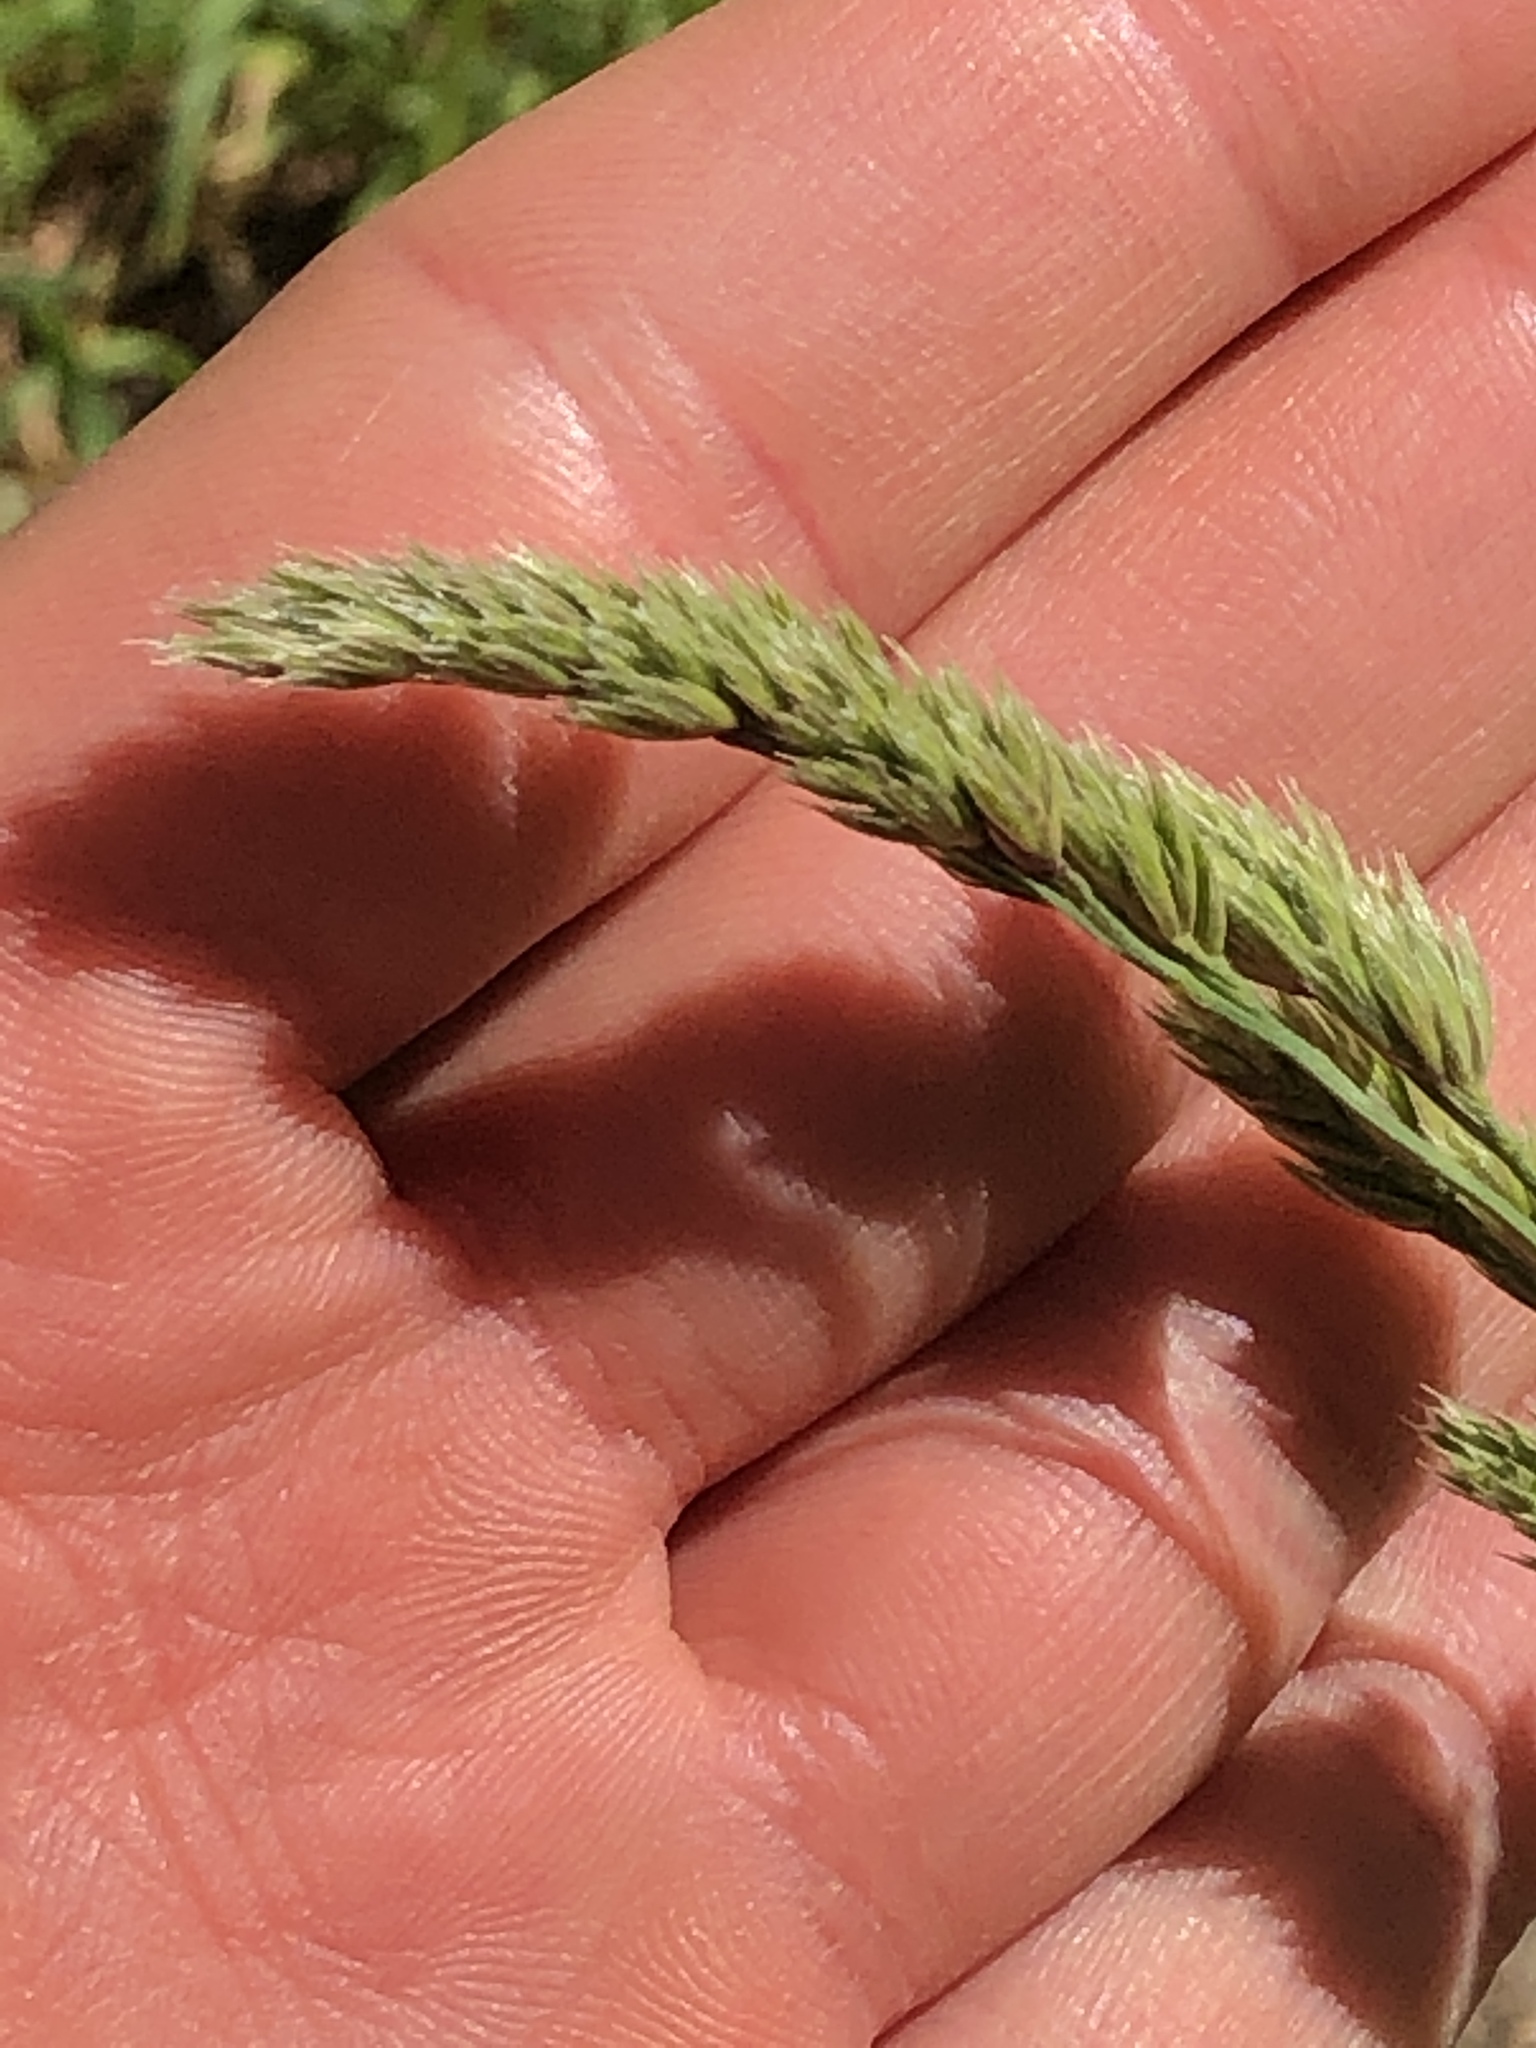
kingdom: Plantae
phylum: Tracheophyta
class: Liliopsida
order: Poales
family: Poaceae
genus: Dactylis
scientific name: Dactylis glomerata
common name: Orchardgrass
